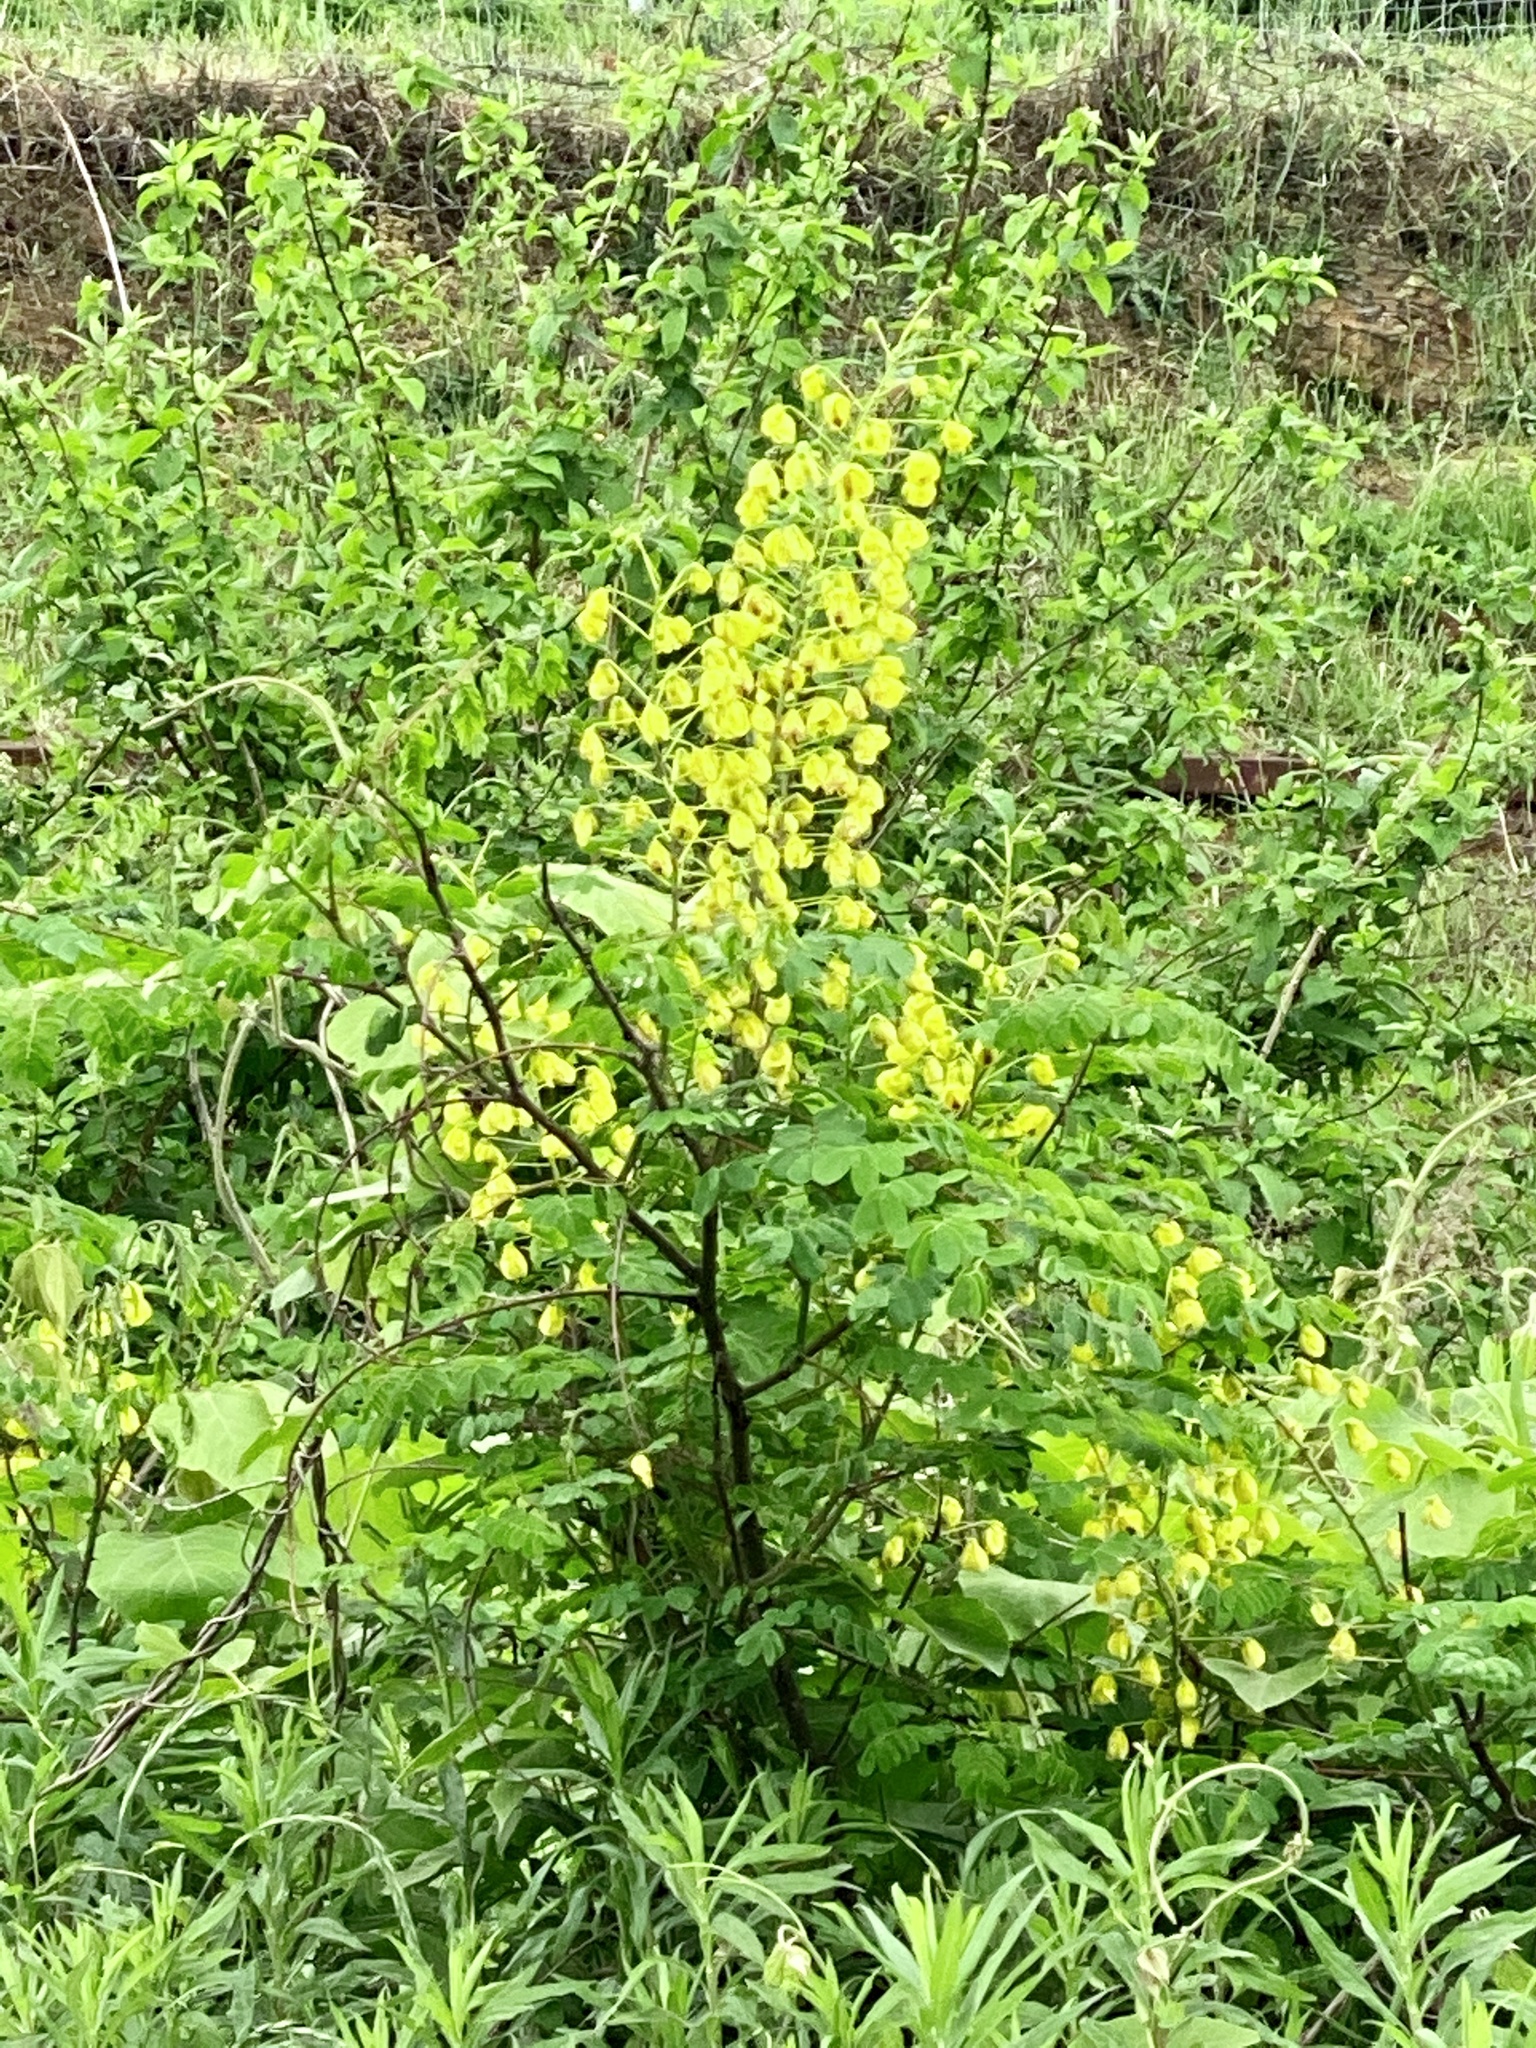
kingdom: Plantae
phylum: Tracheophyta
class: Magnoliopsida
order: Fabales
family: Fabaceae
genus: Biancaea
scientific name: Biancaea decapetala
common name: Cat's claw
